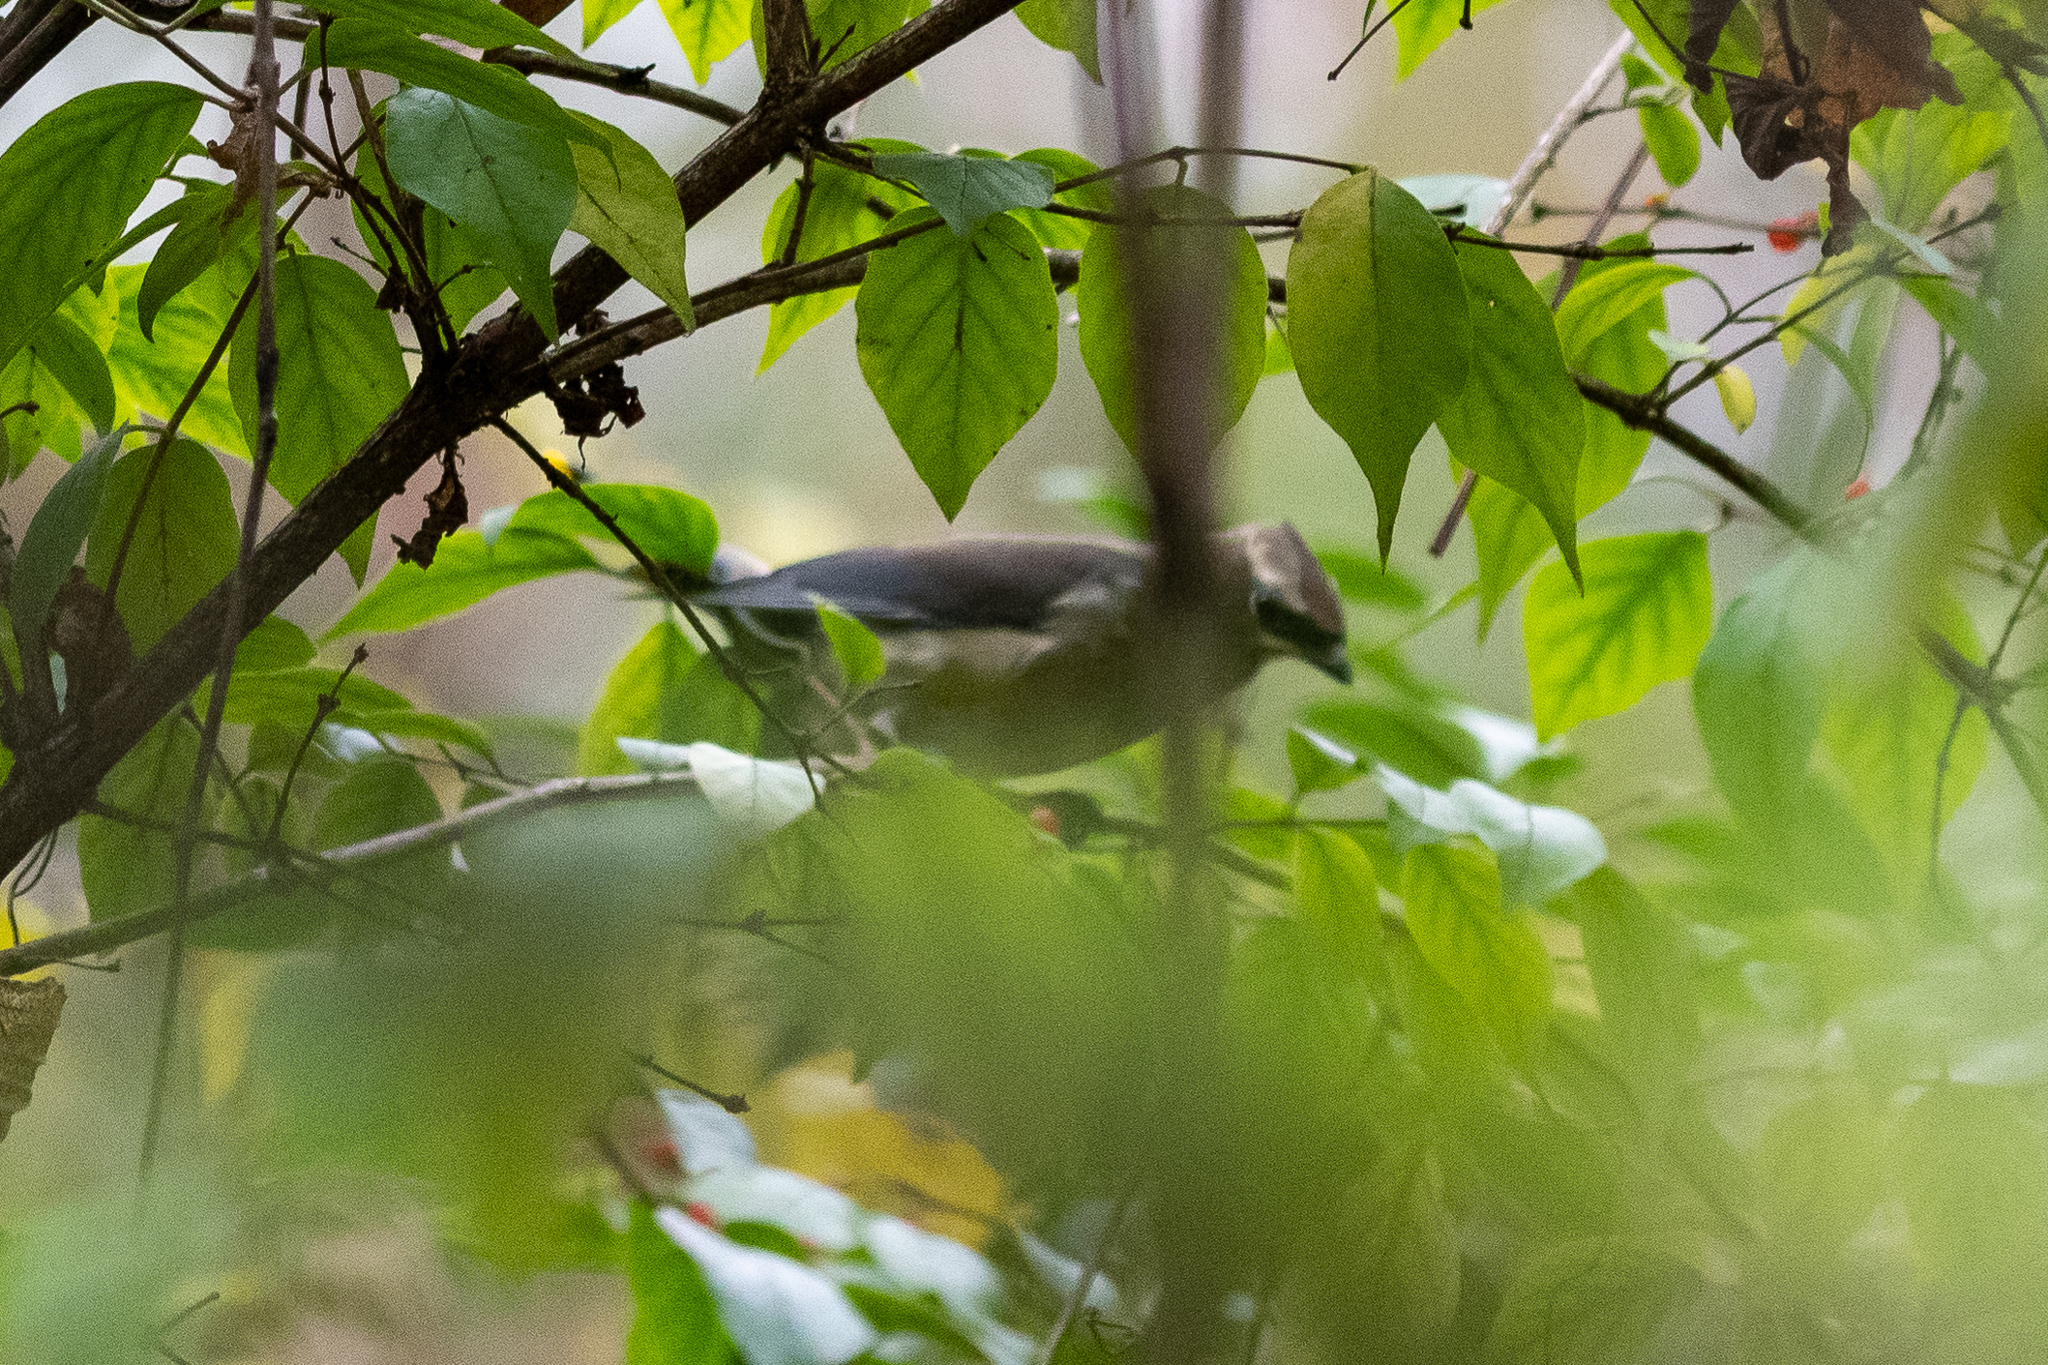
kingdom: Animalia
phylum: Chordata
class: Aves
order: Passeriformes
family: Bombycillidae
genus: Bombycilla
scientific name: Bombycilla cedrorum
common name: Cedar waxwing
